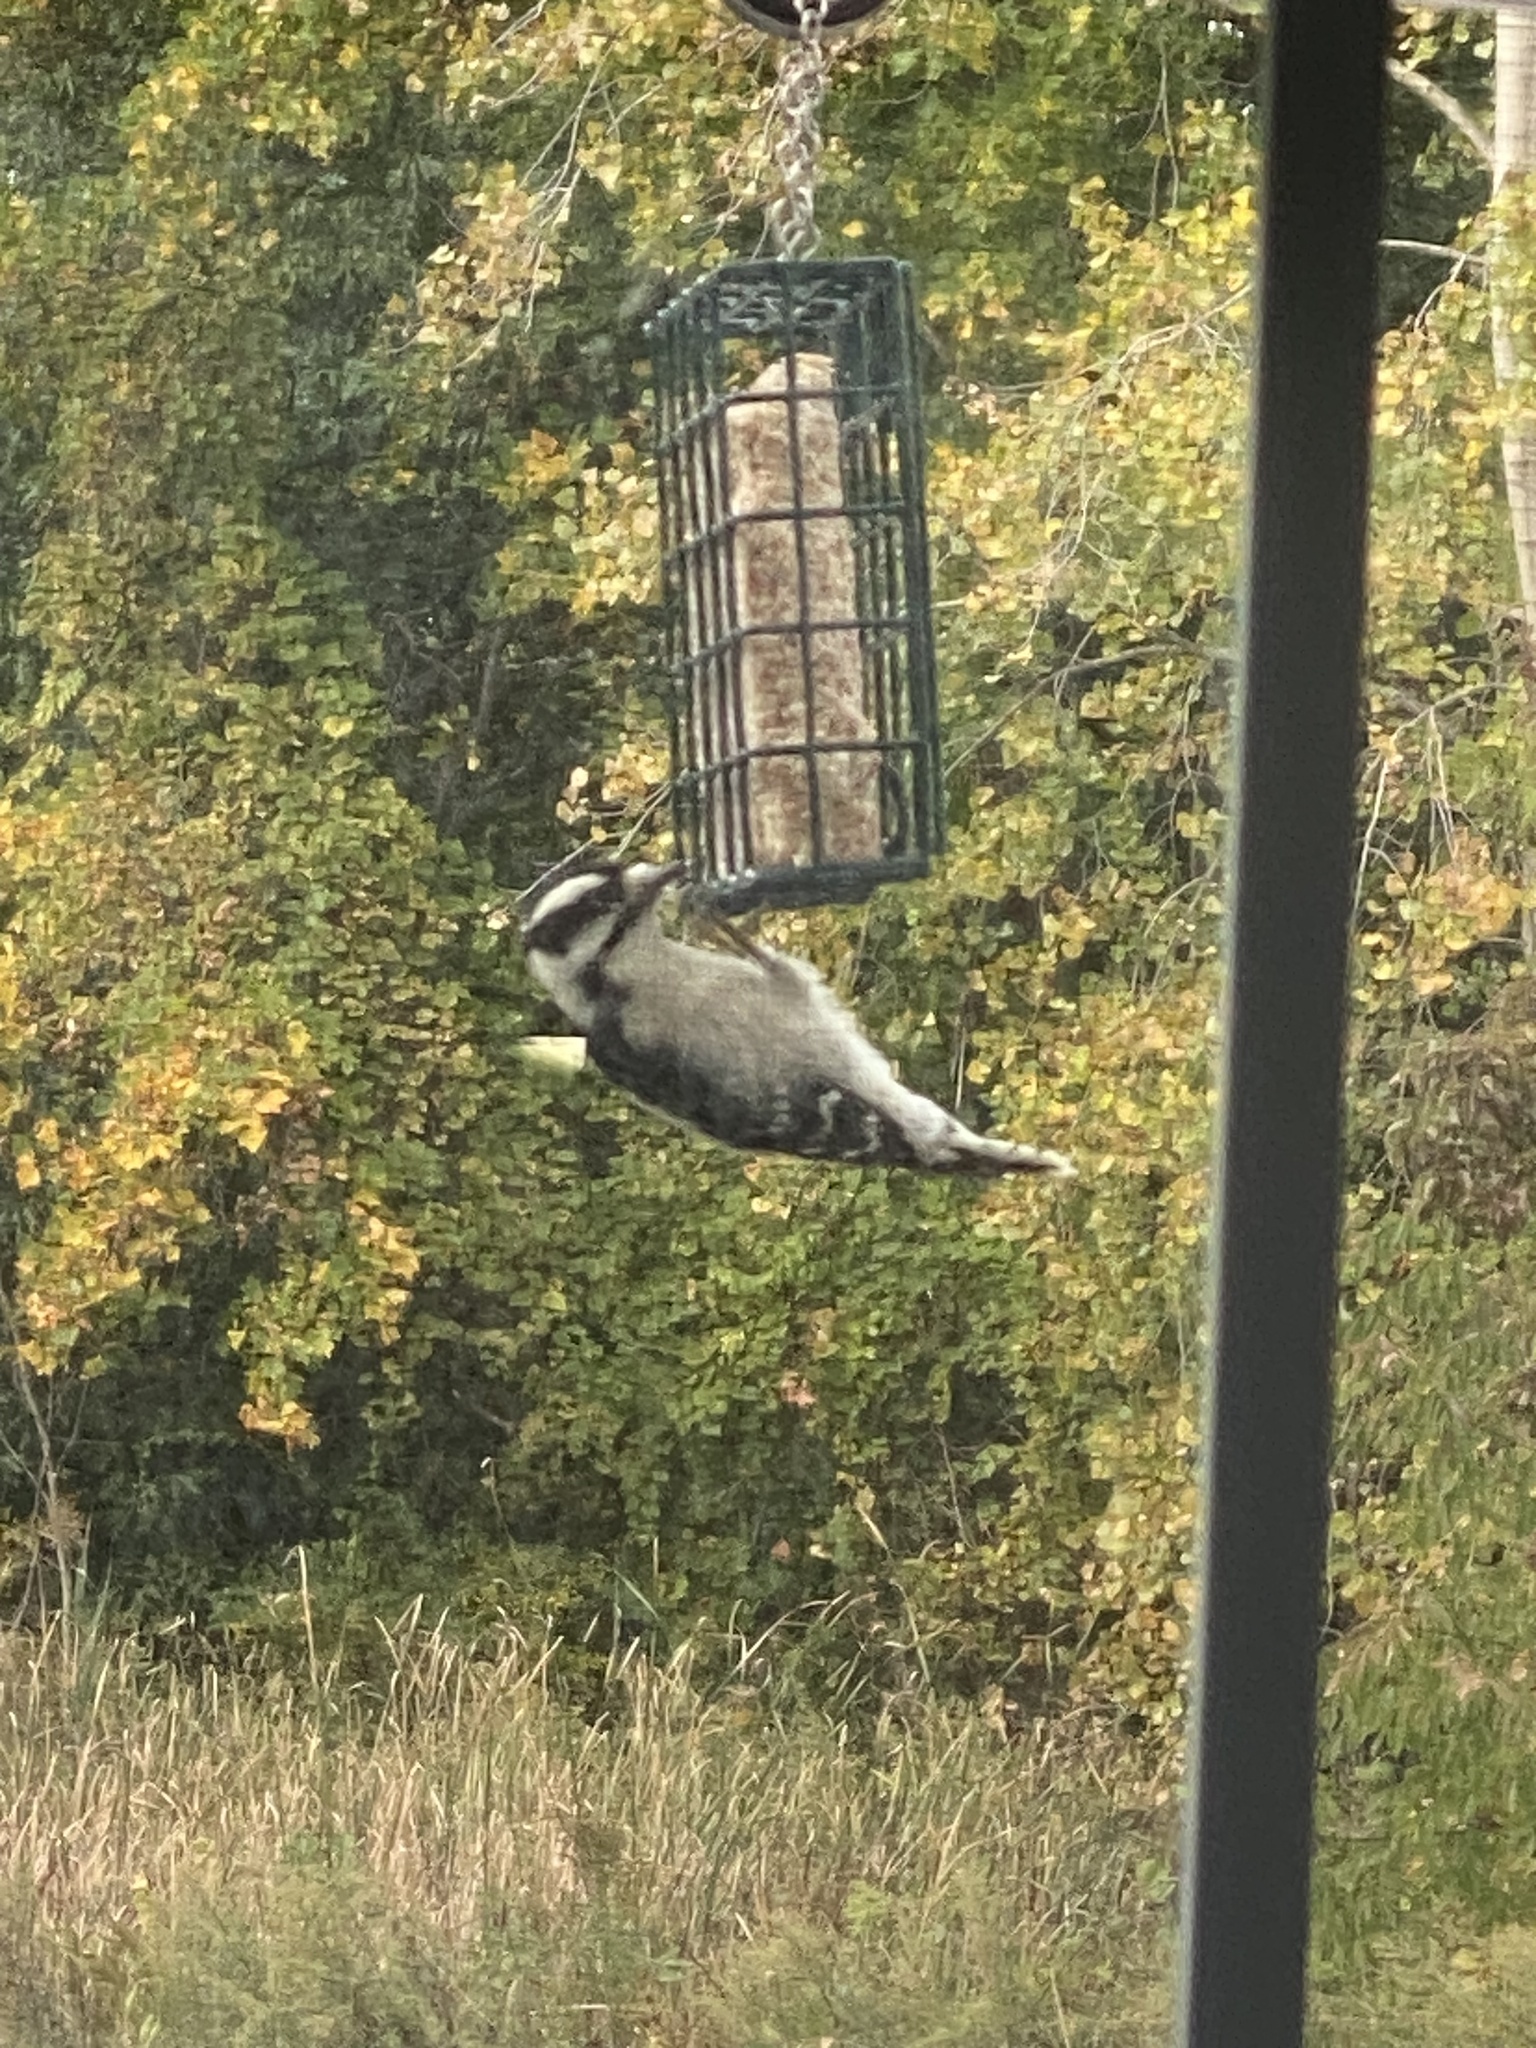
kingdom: Animalia
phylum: Chordata
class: Aves
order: Piciformes
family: Picidae
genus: Dryobates
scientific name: Dryobates pubescens
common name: Downy woodpecker
